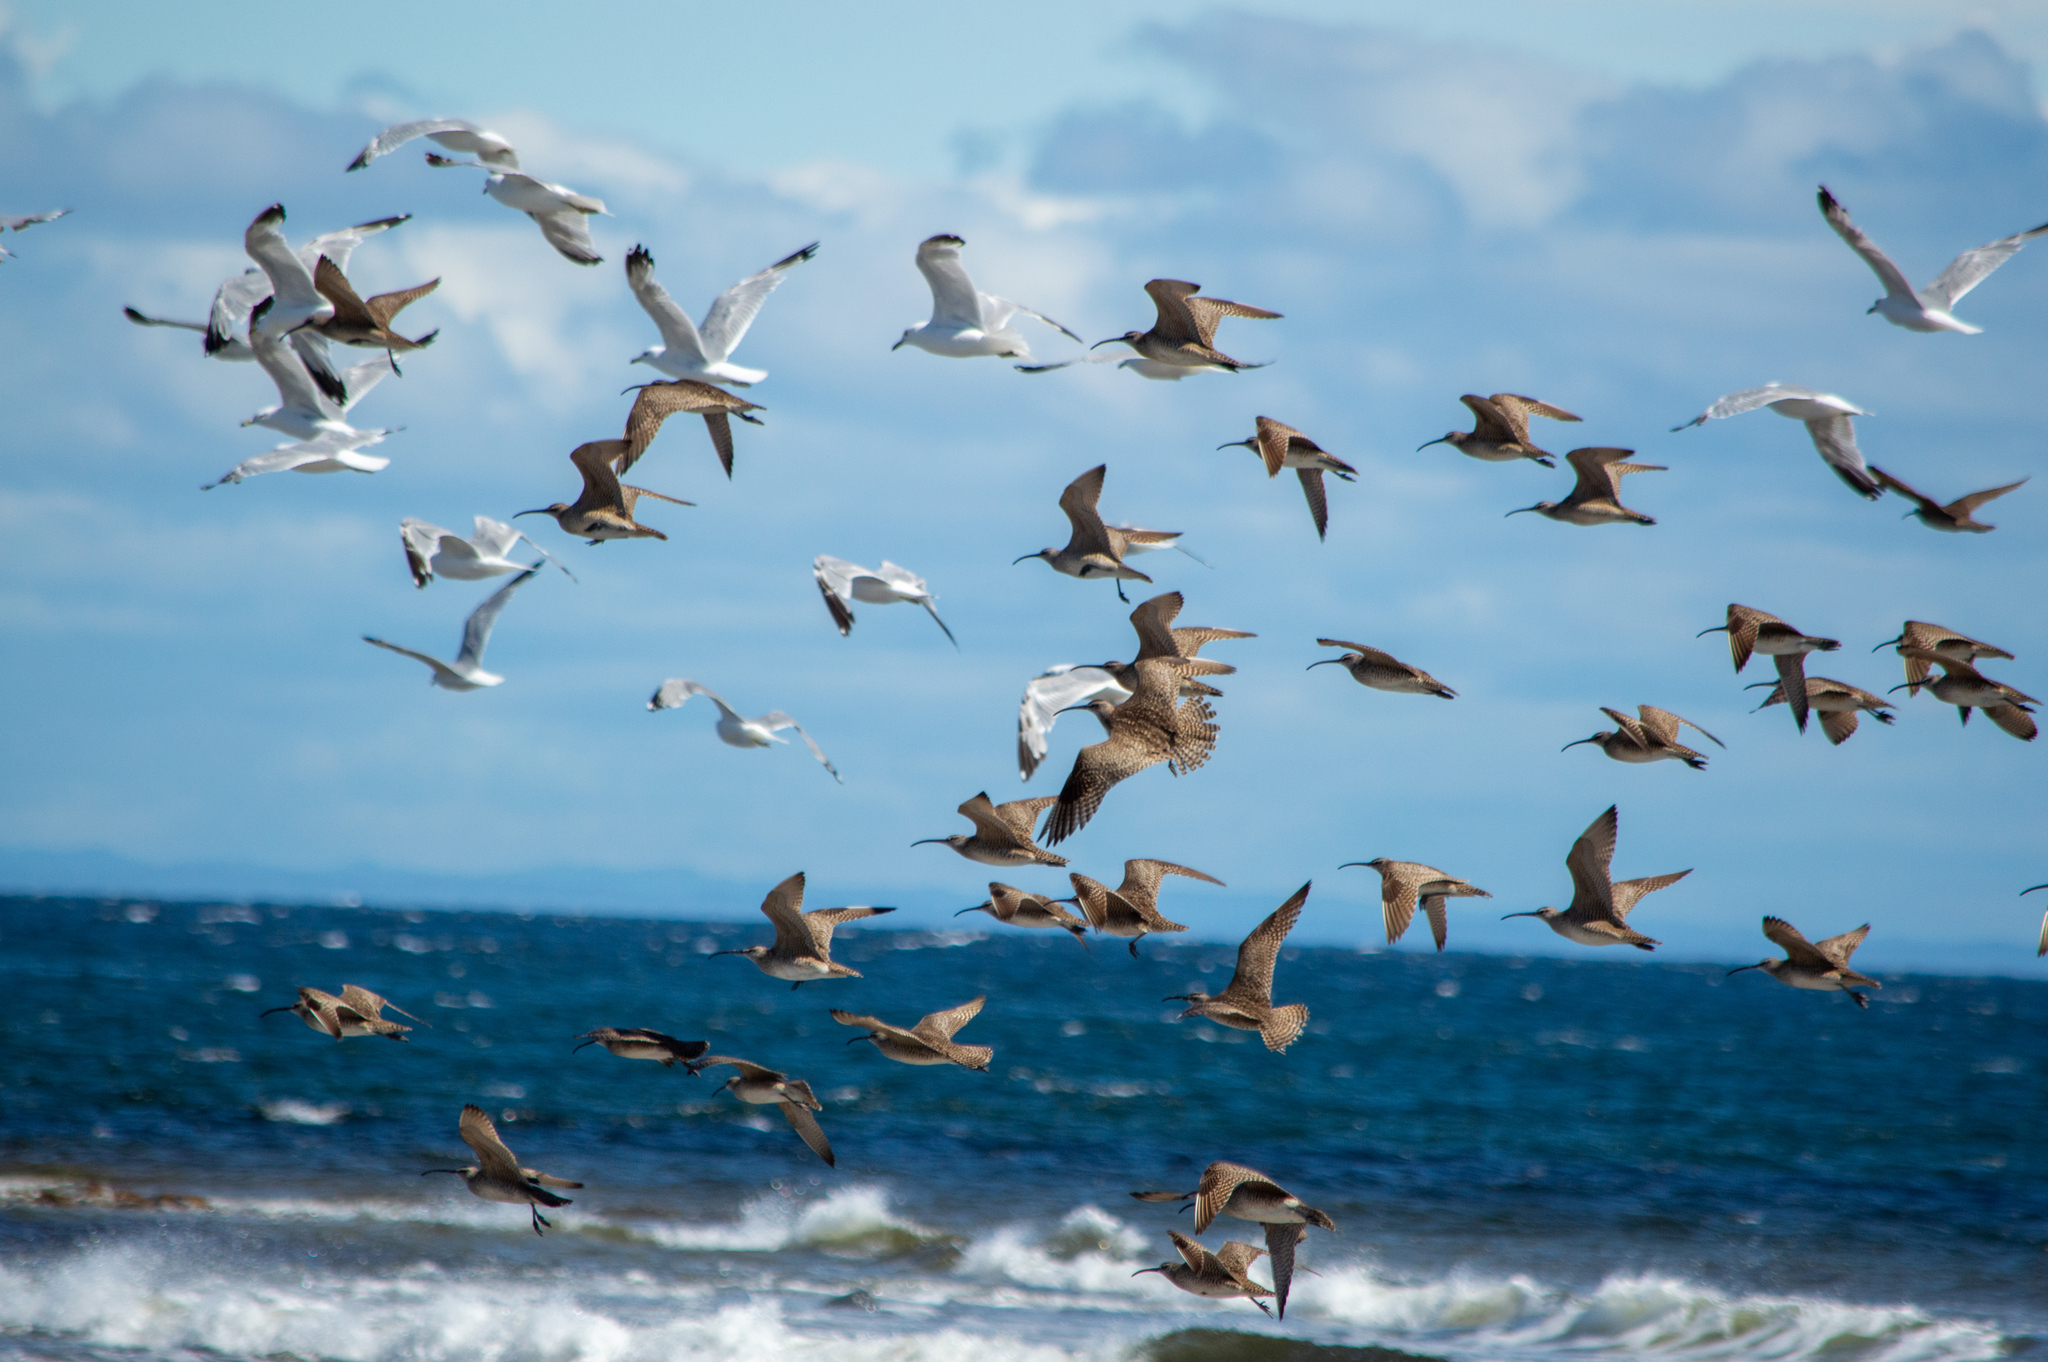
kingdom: Animalia
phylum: Chordata
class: Aves
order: Charadriiformes
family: Scolopacidae
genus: Numenius
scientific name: Numenius phaeopus
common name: Whimbrel
